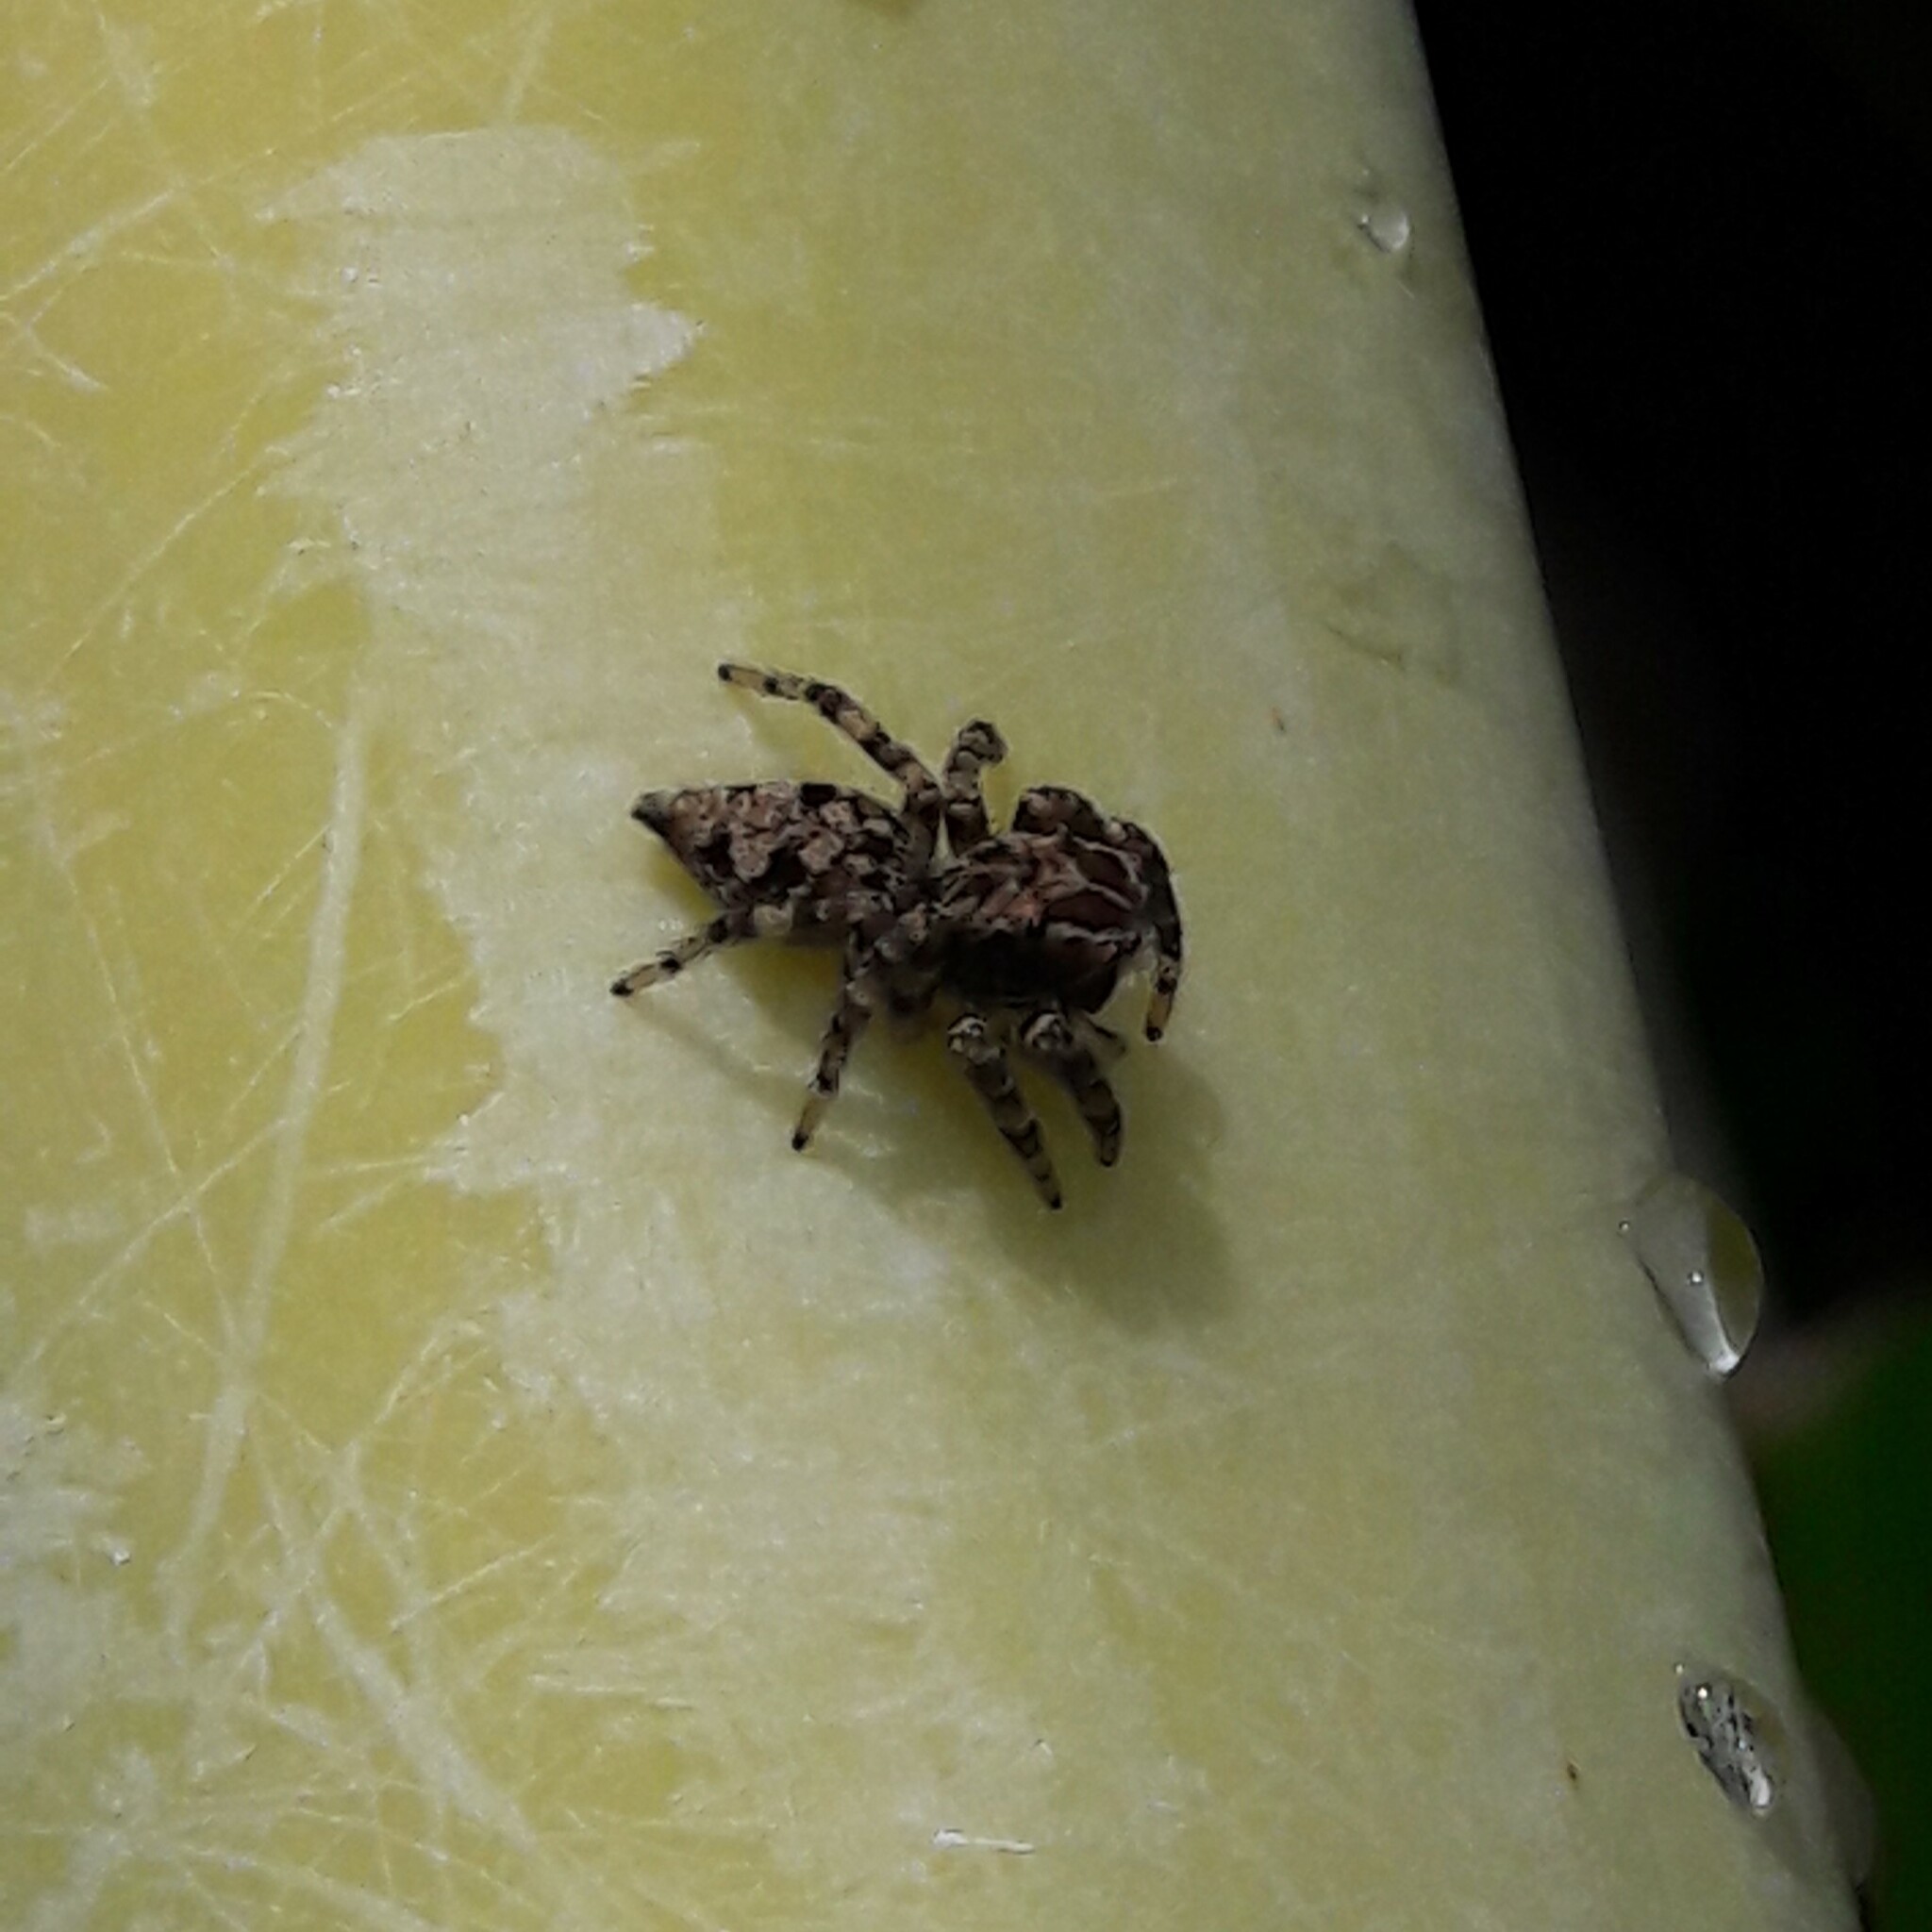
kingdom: Animalia
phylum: Arthropoda
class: Arachnida
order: Araneae
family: Salticidae
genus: Sumampattus
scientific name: Sumampattus quinqueradiatus
